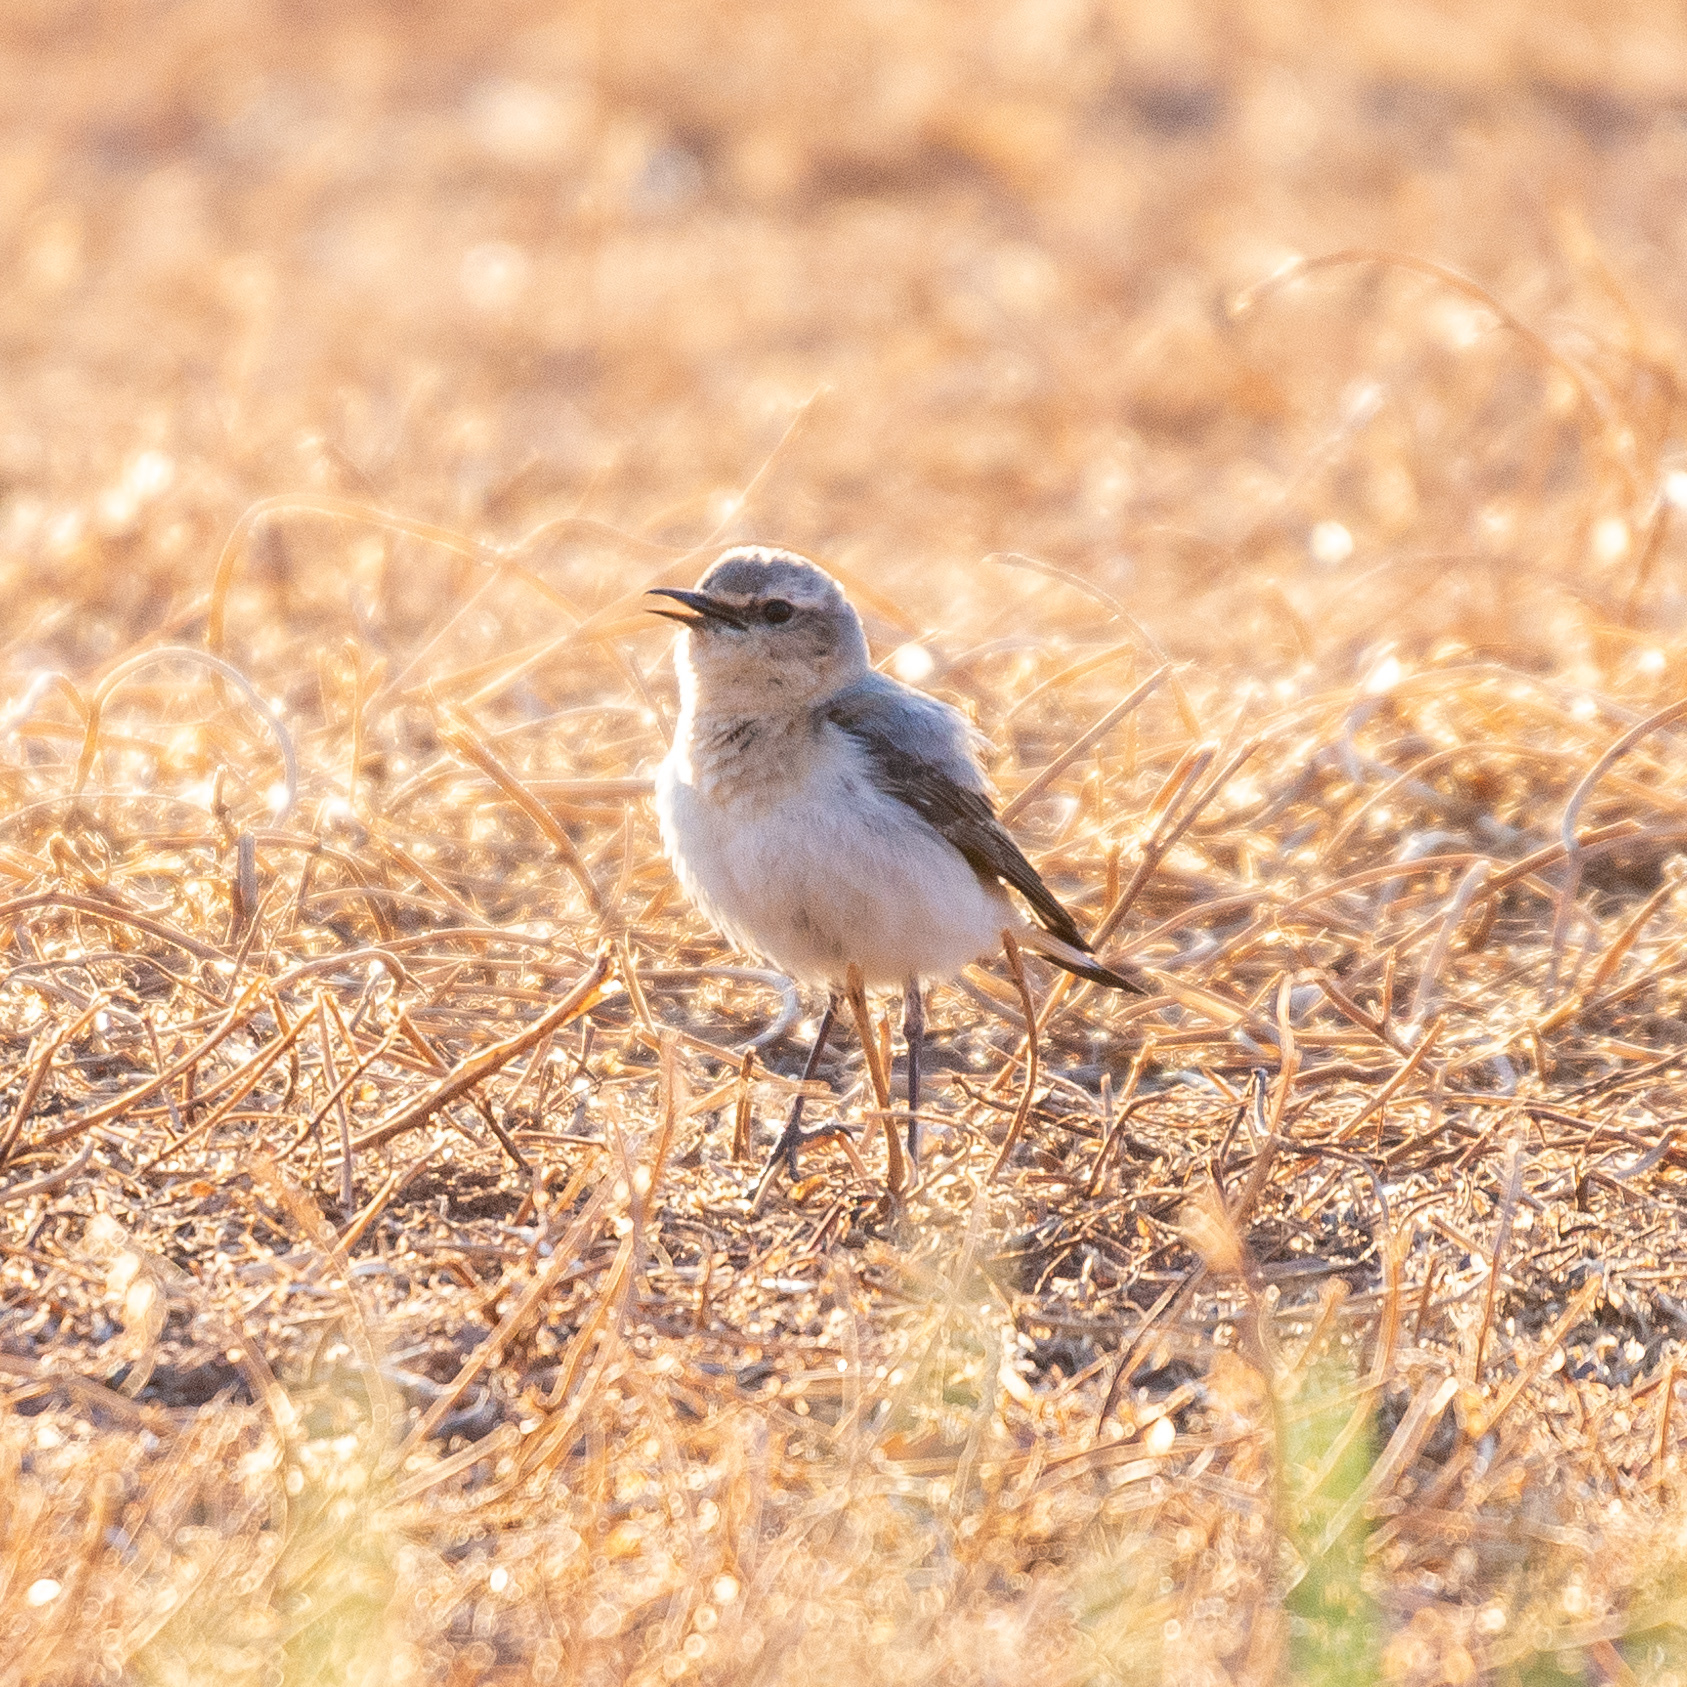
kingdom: Animalia
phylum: Chordata
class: Aves
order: Passeriformes
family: Muscicapidae
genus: Oenanthe
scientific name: Oenanthe oenanthe
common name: Northern wheatear
